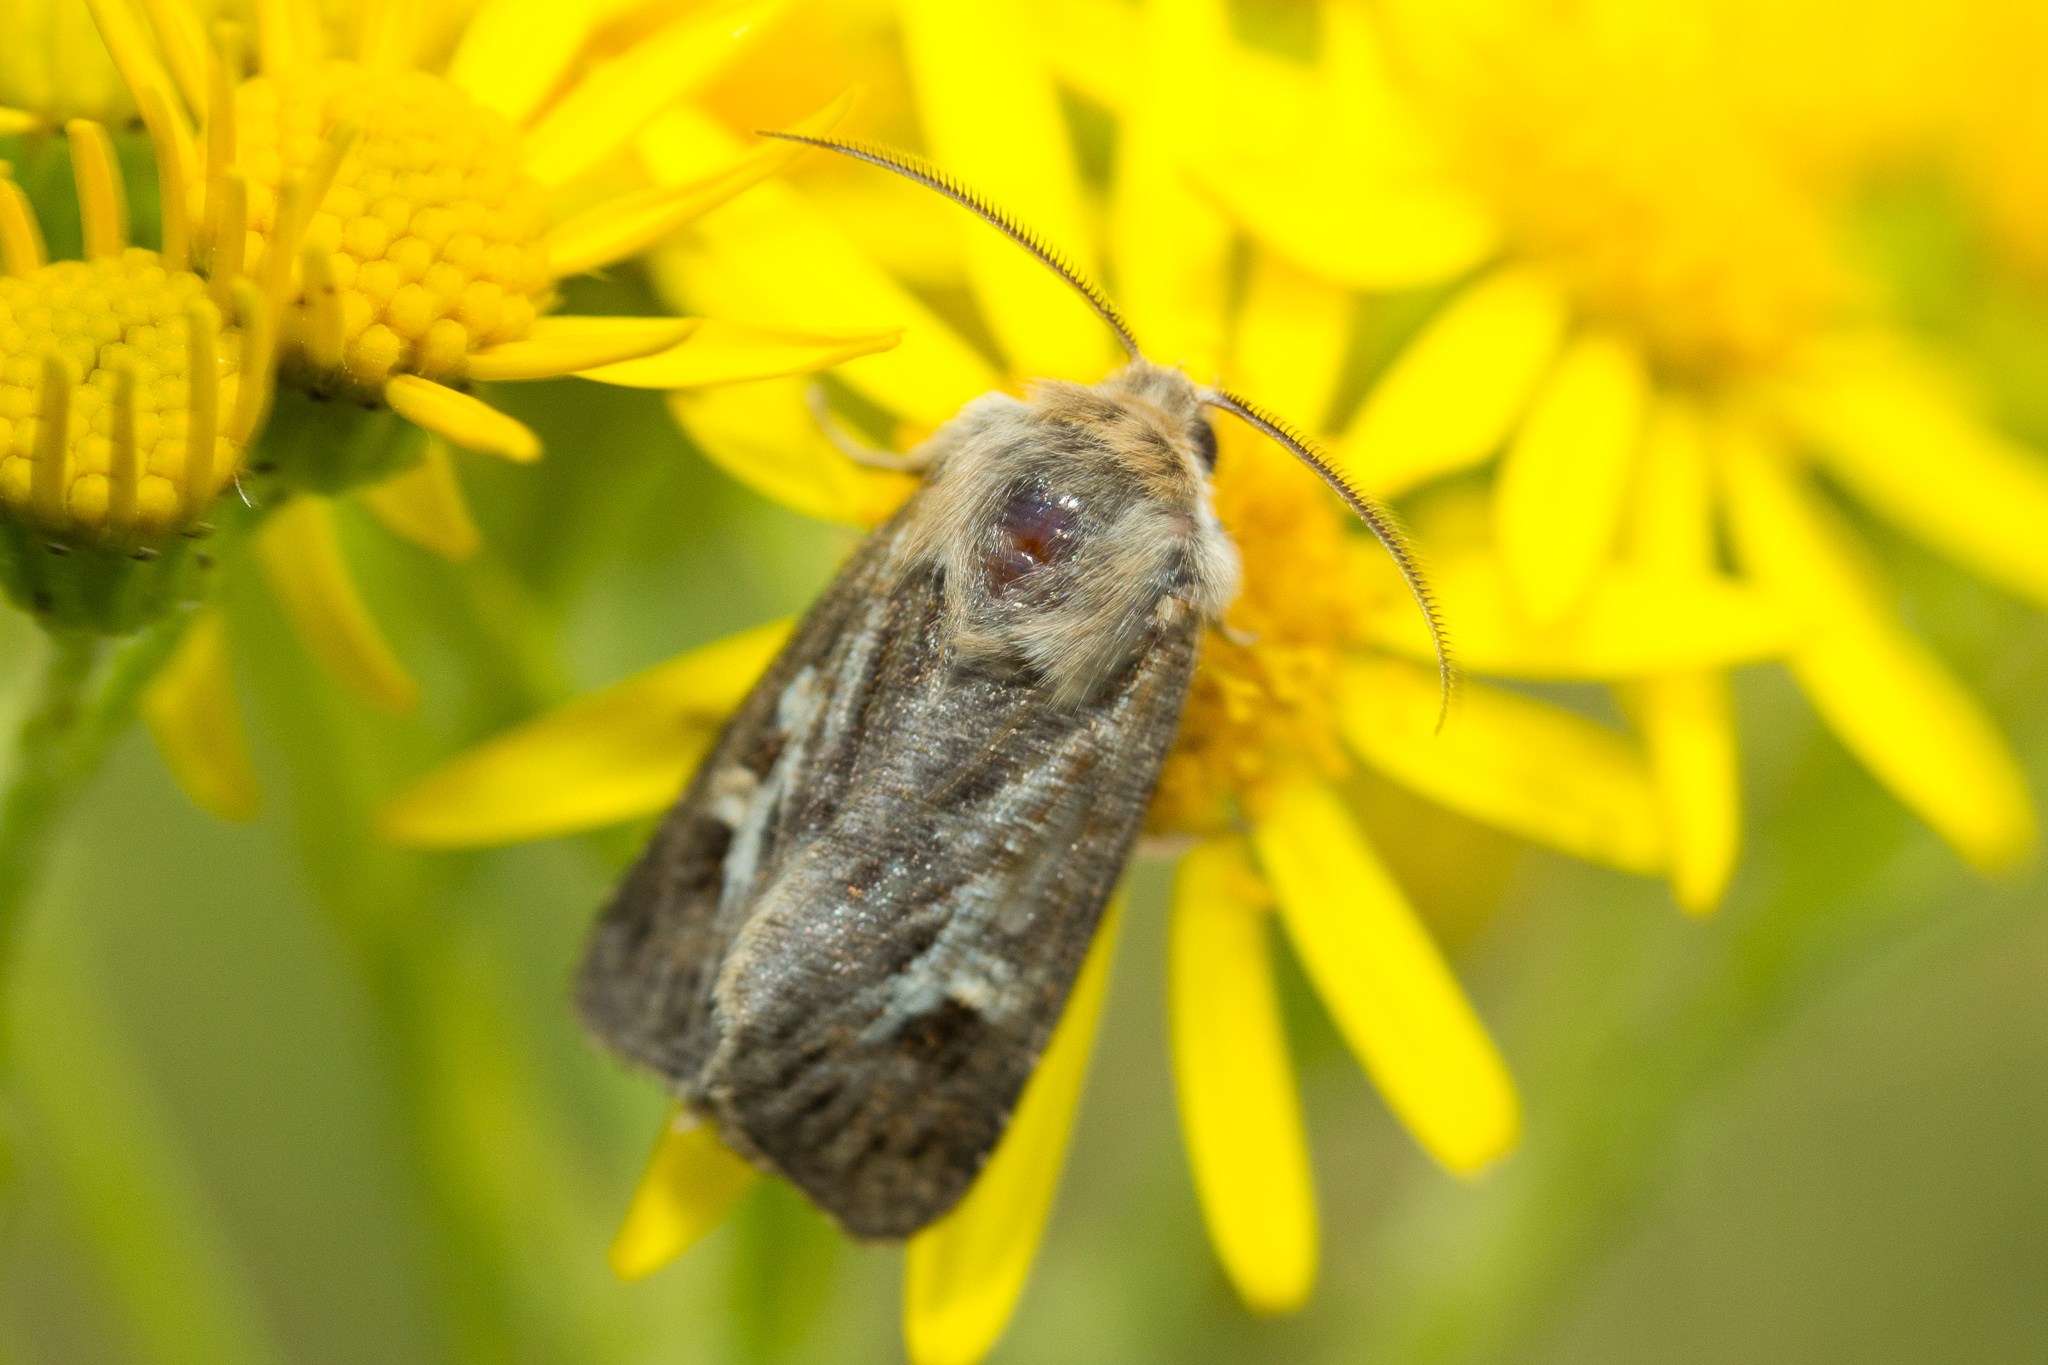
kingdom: Animalia
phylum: Arthropoda
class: Insecta
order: Lepidoptera
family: Noctuidae
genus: Cerapteryx
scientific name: Cerapteryx graminis
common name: Antler moth
